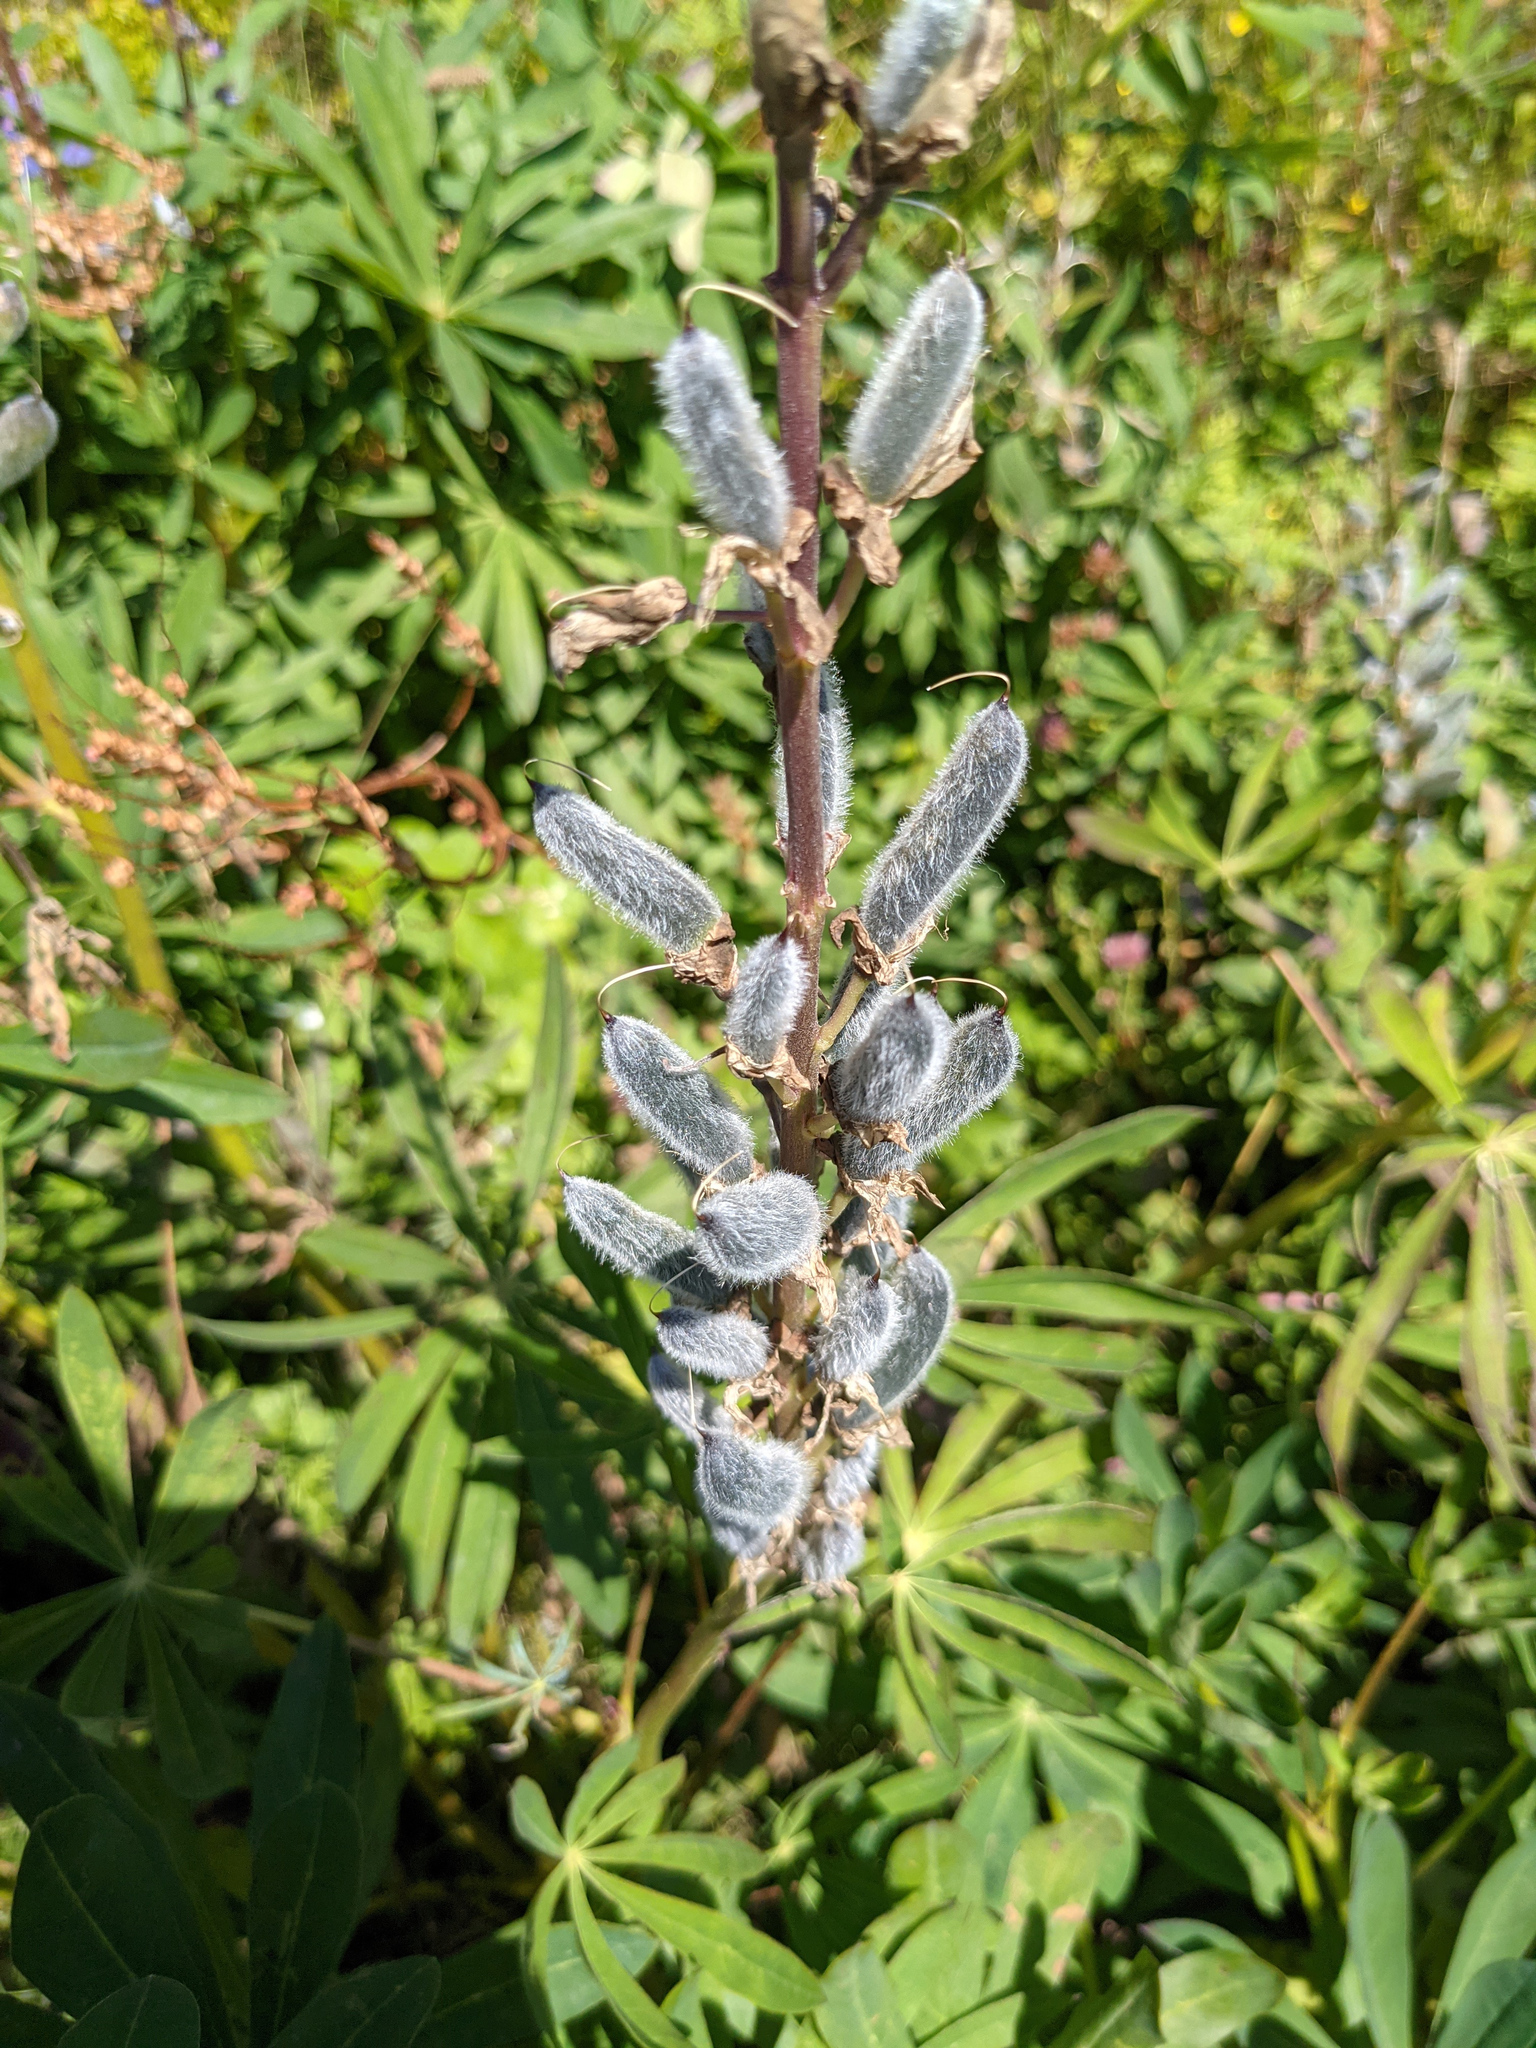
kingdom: Plantae
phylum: Tracheophyta
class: Magnoliopsida
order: Fabales
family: Fabaceae
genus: Lupinus
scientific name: Lupinus polyphyllus
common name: Garden lupin
